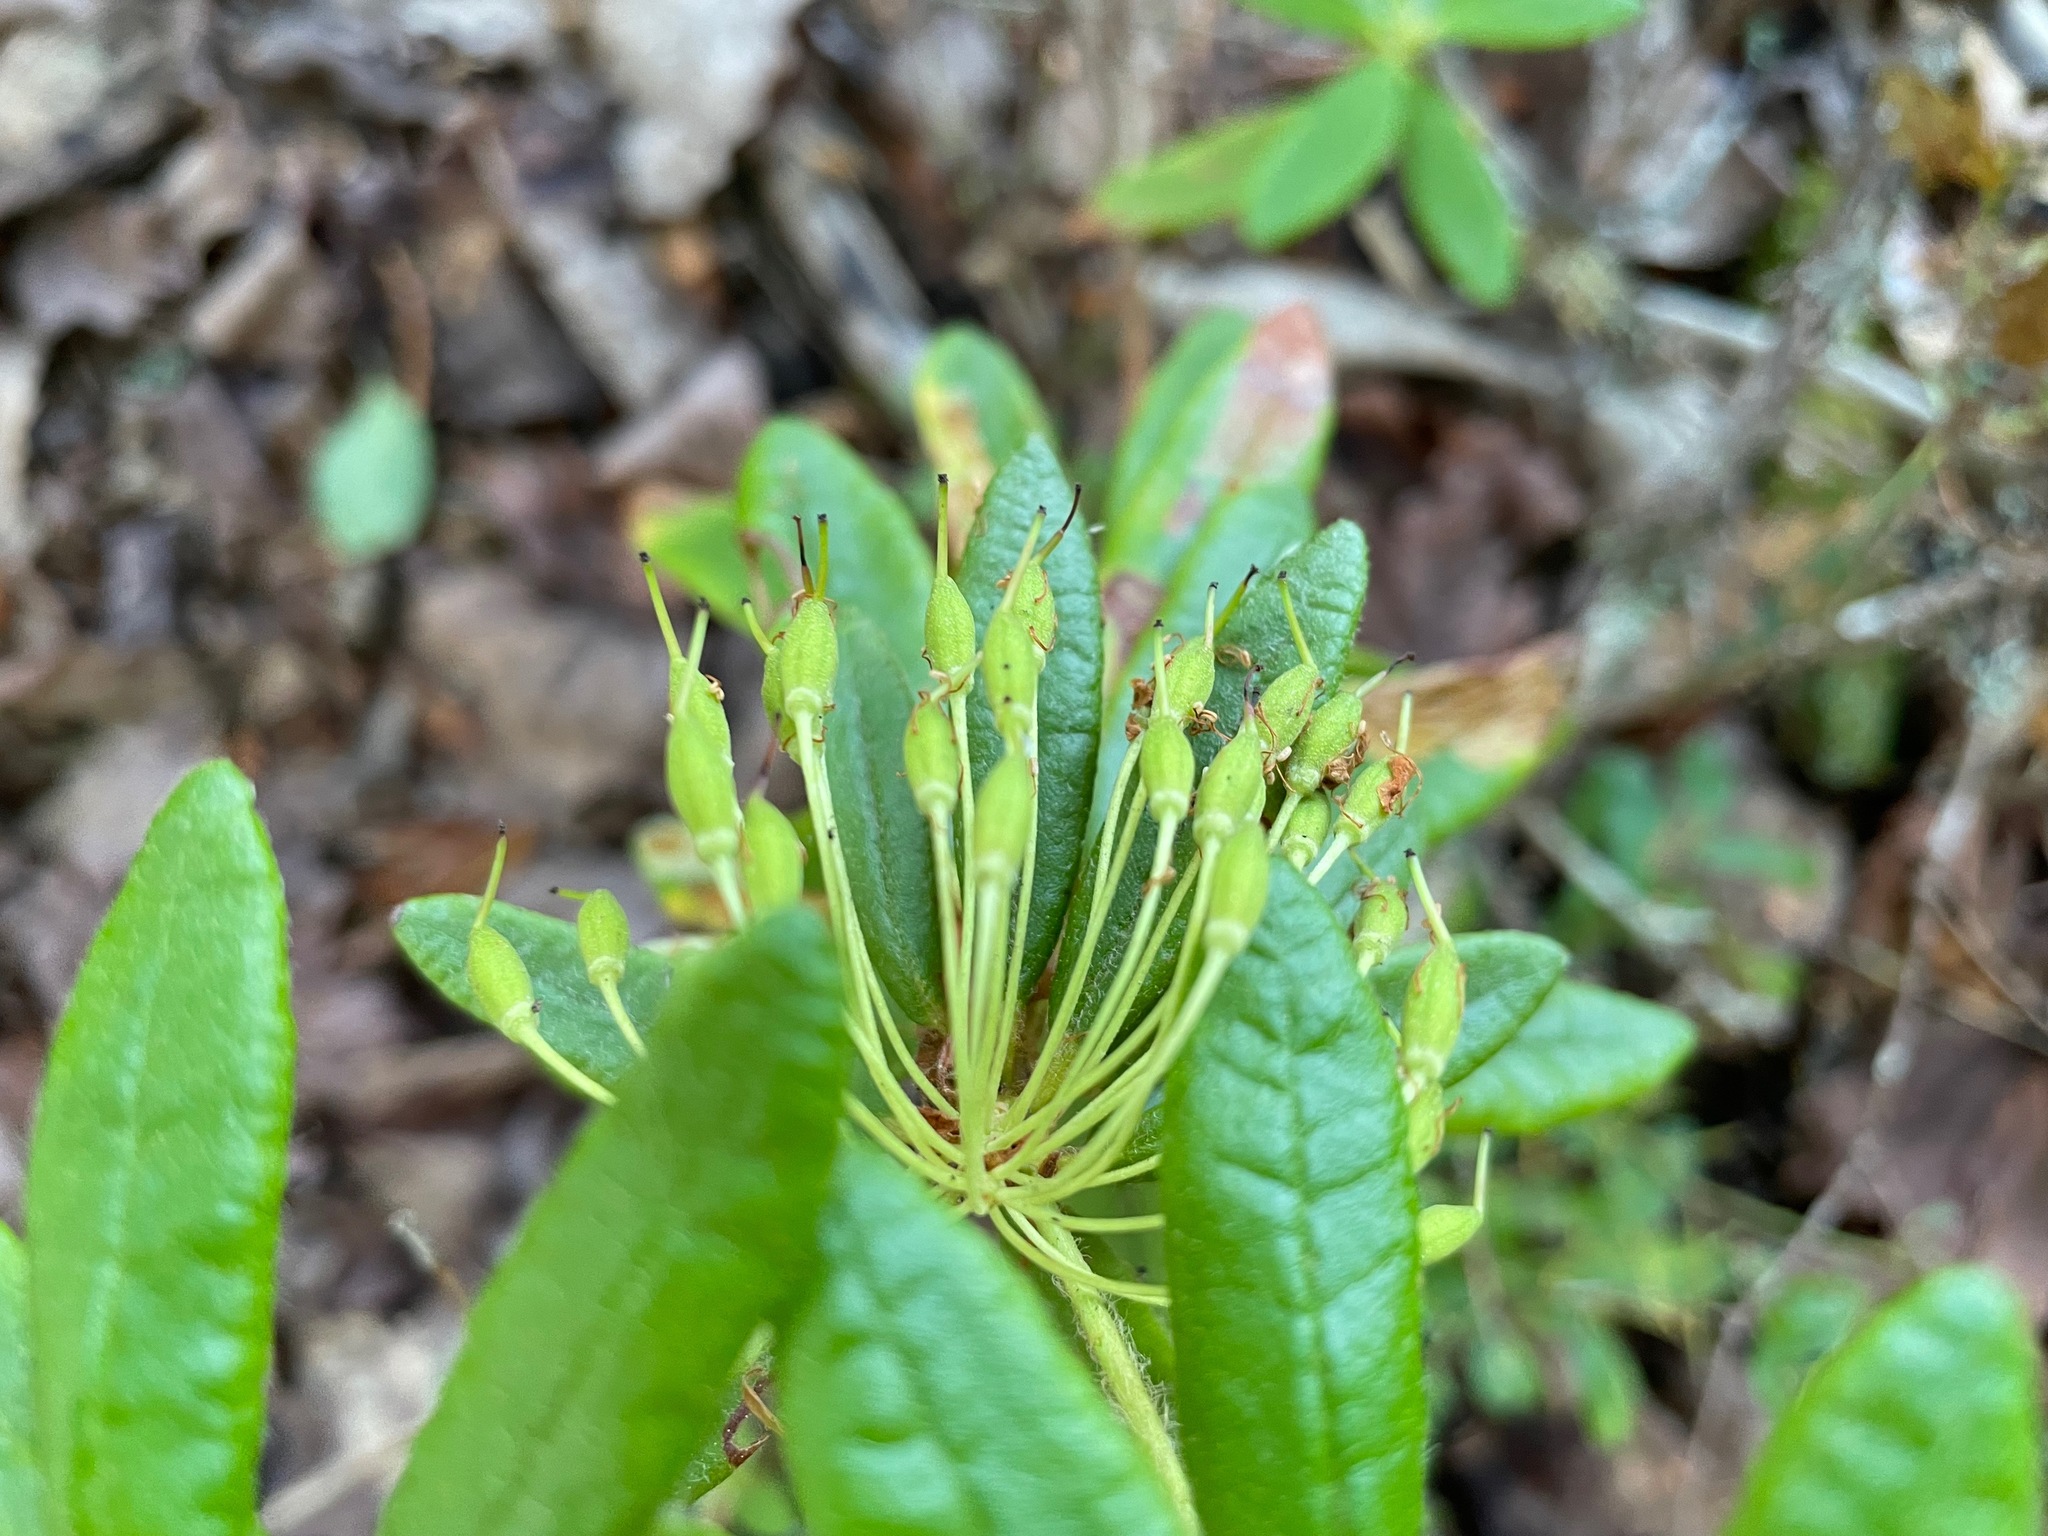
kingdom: Plantae
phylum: Tracheophyta
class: Magnoliopsida
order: Ericales
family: Ericaceae
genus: Rhododendron
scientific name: Rhododendron groenlandicum
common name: Bog labrador tea
